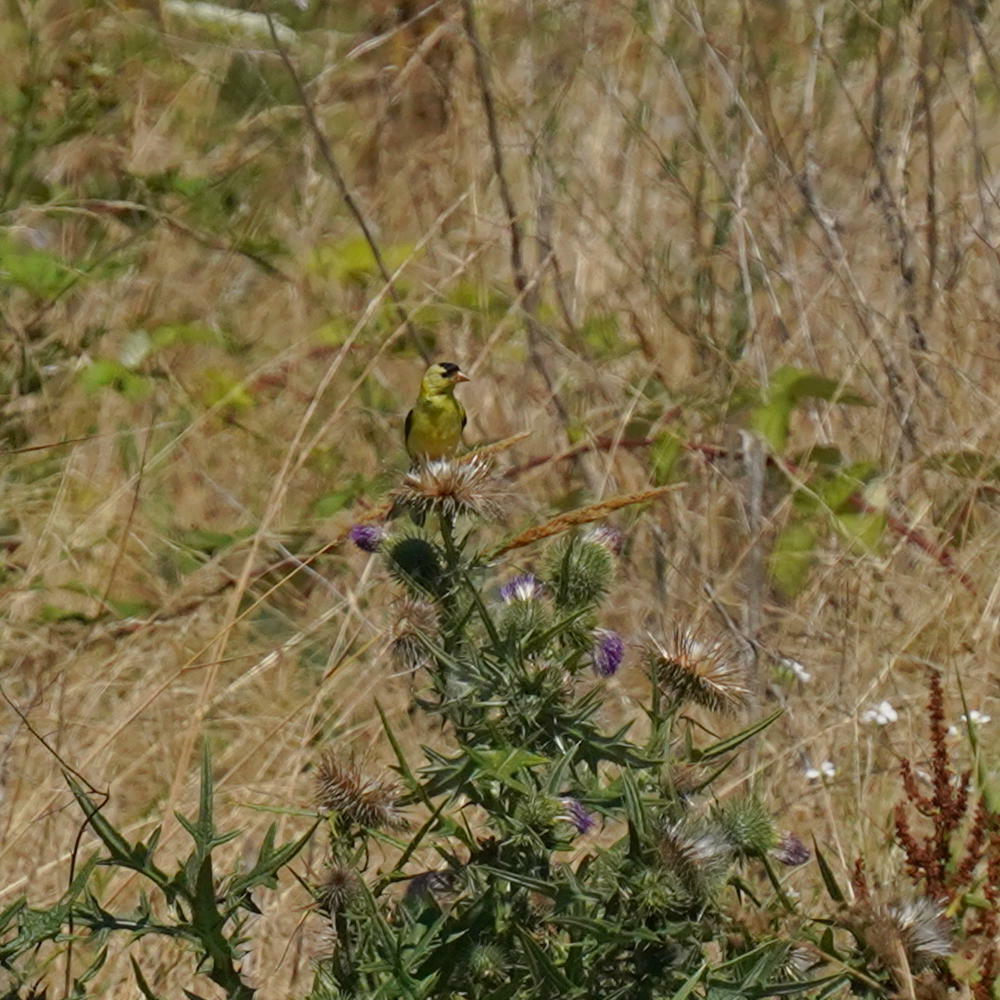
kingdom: Animalia
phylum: Chordata
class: Aves
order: Passeriformes
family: Fringillidae
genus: Spinus
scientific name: Spinus tristis
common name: American goldfinch
